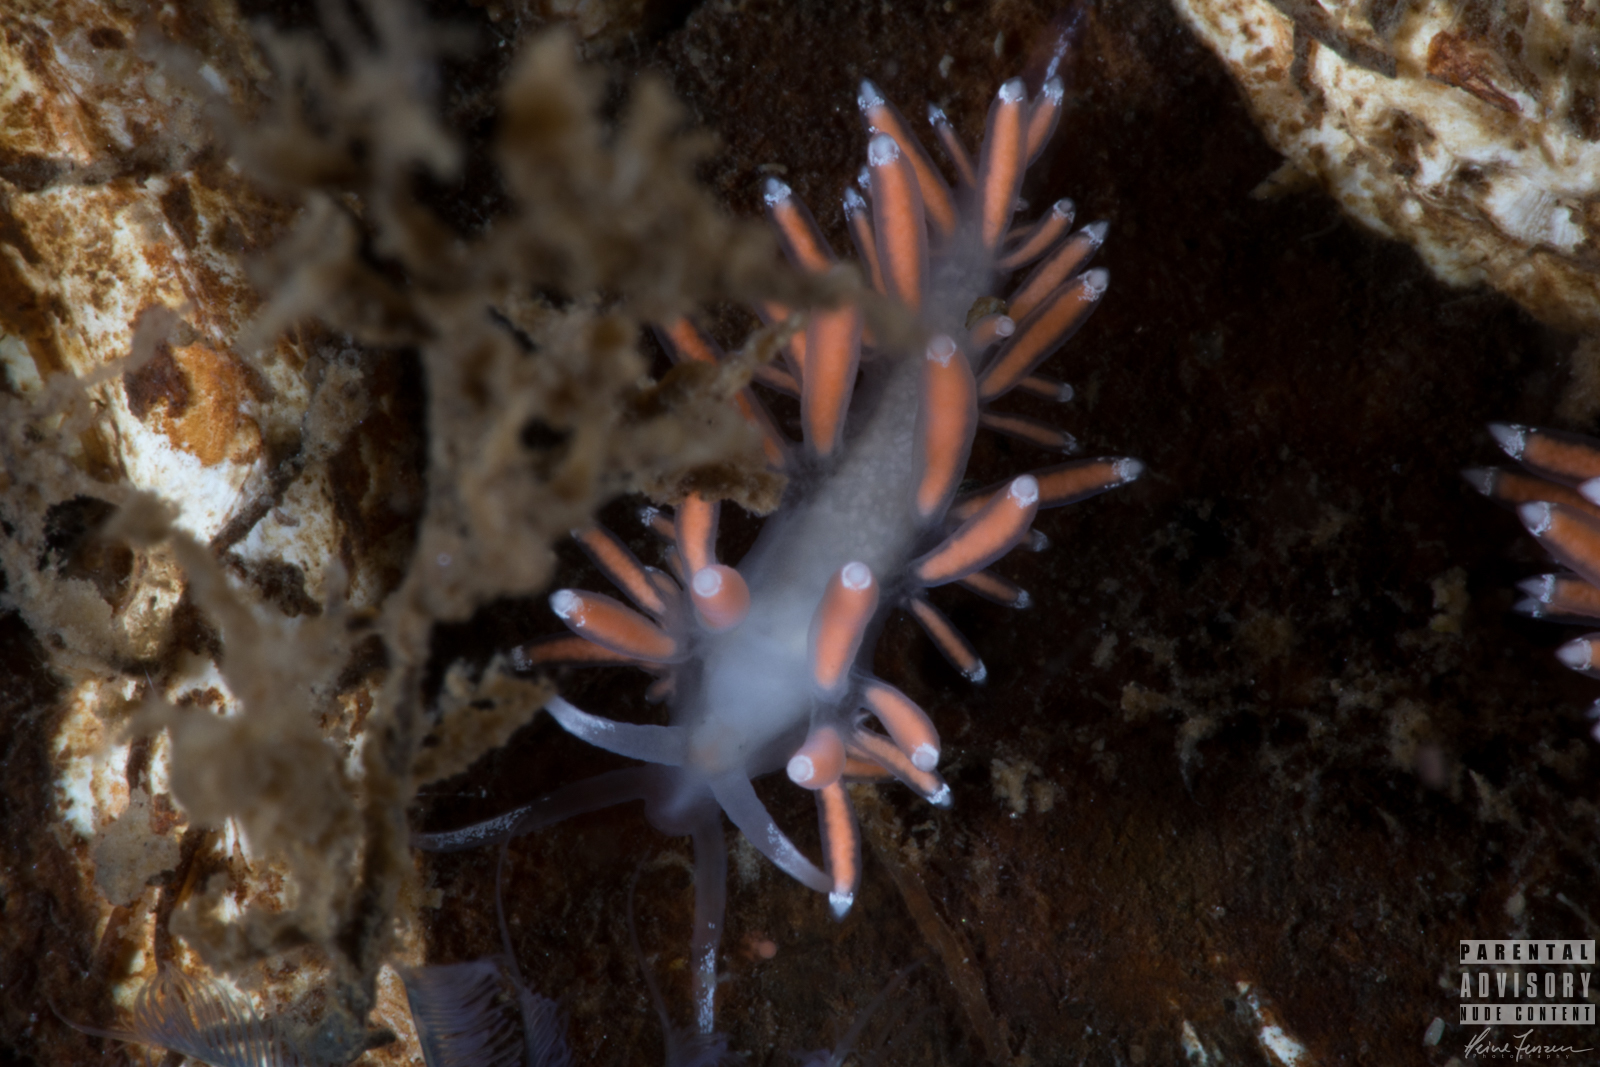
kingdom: Animalia
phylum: Mollusca
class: Gastropoda
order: Nudibranchia
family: Coryphellidae
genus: Coryphella
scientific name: Coryphella gracilis
